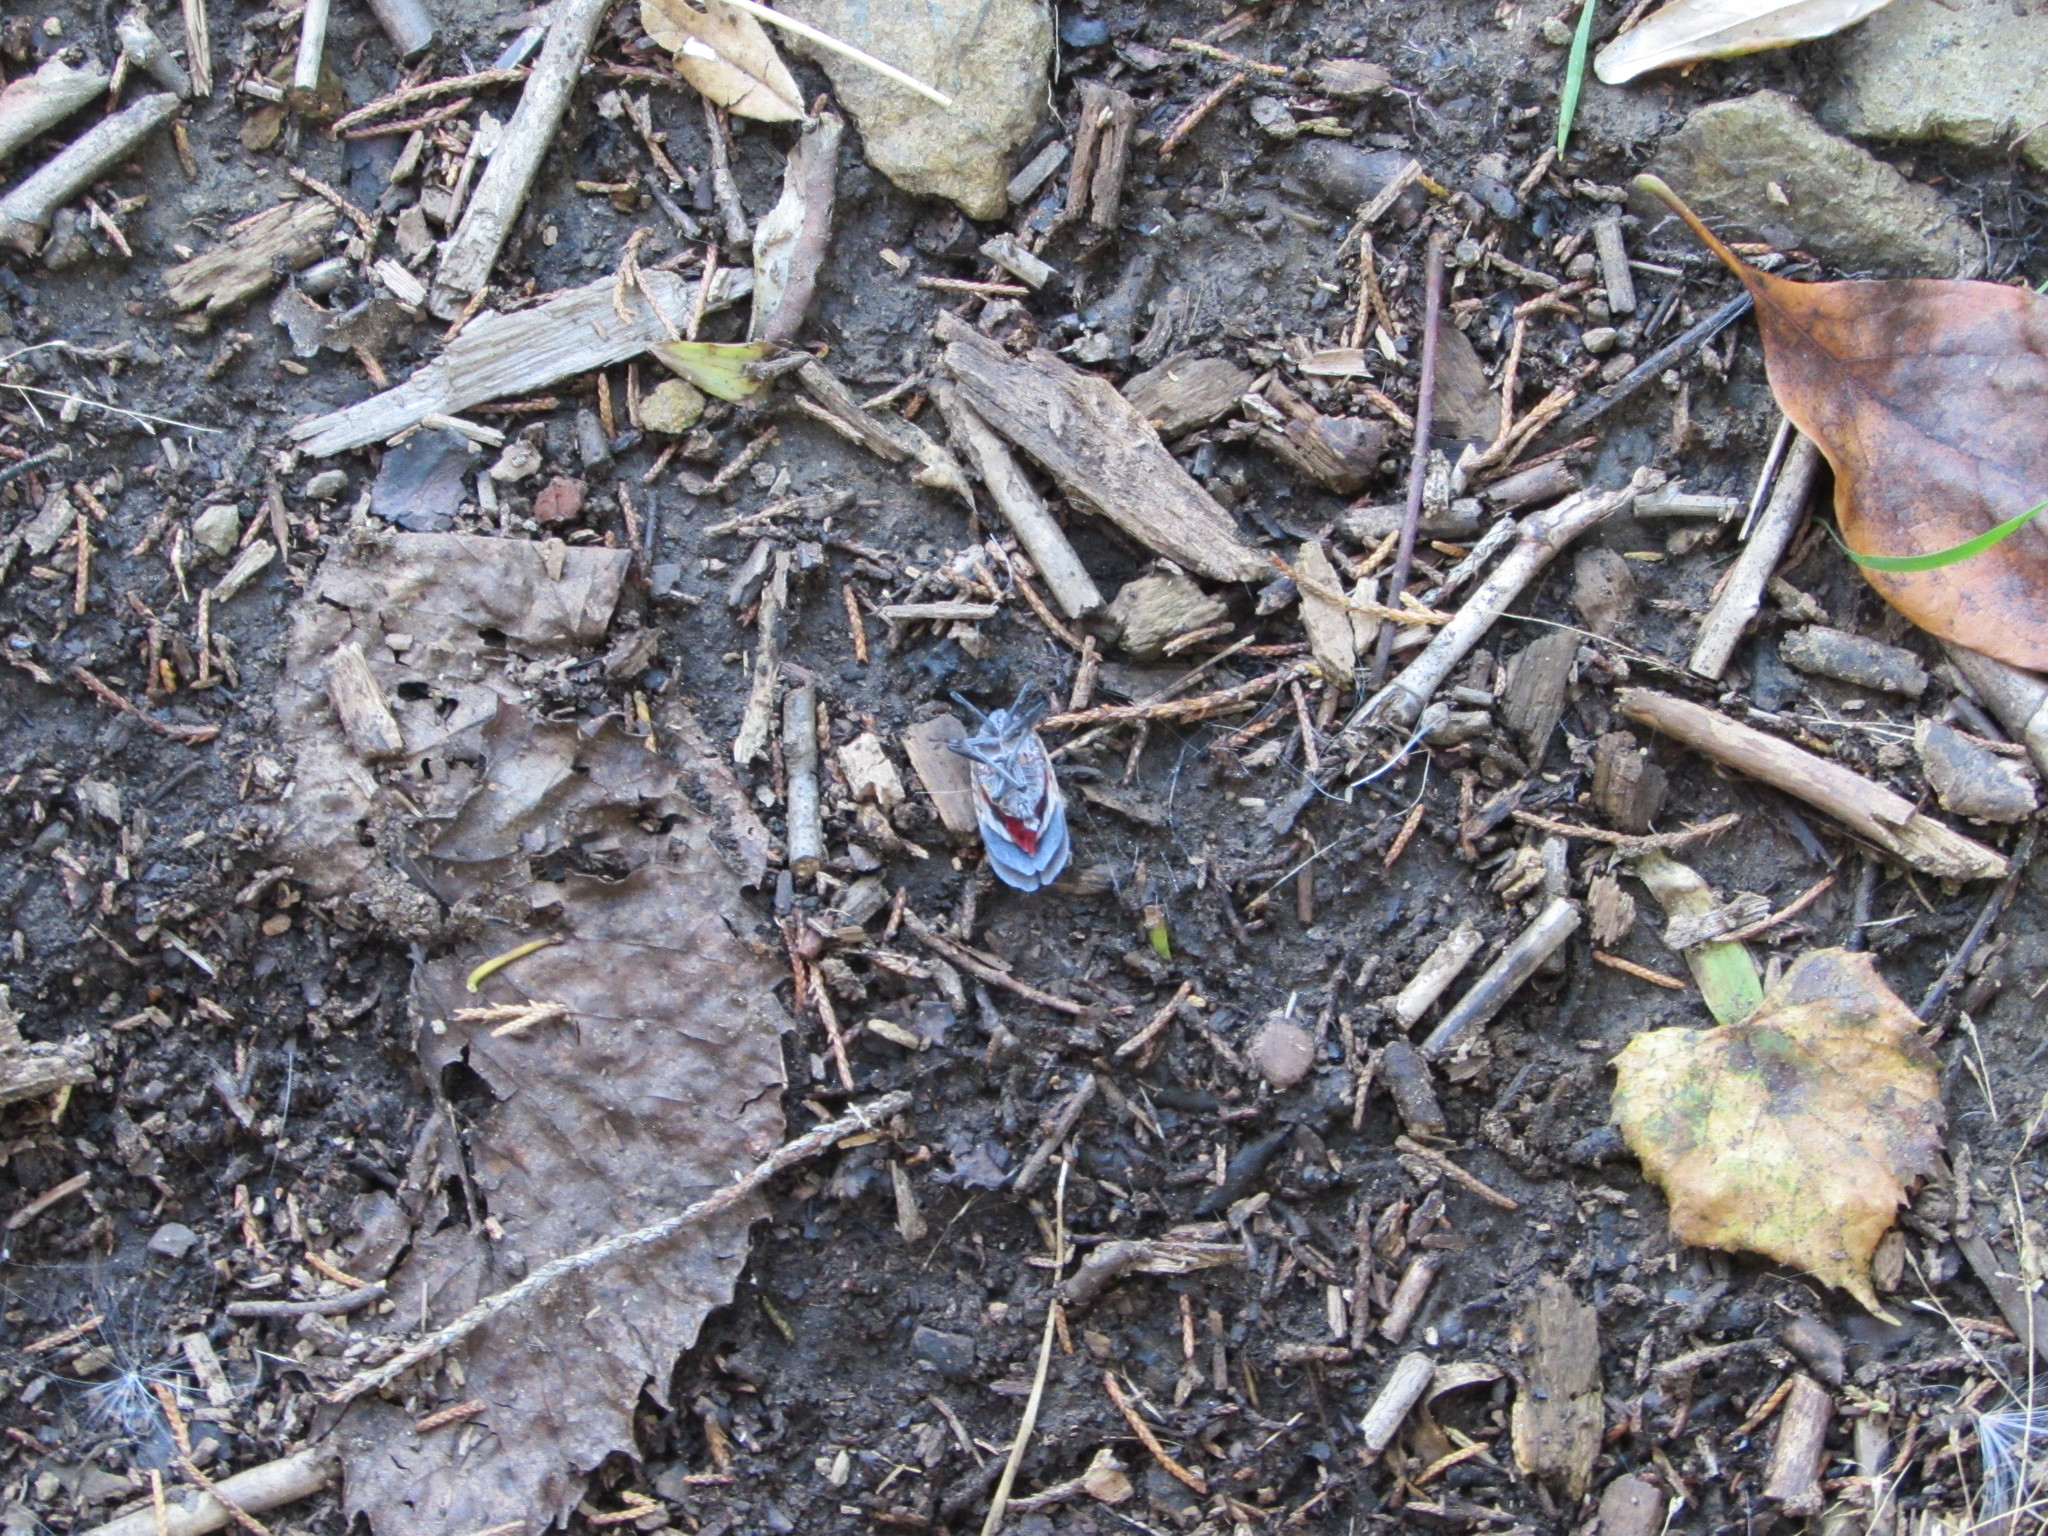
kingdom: Animalia
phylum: Arthropoda
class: Insecta
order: Hemiptera
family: Fulgoridae
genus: Lycorma
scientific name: Lycorma delicatula
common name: Spotted lanternfly
